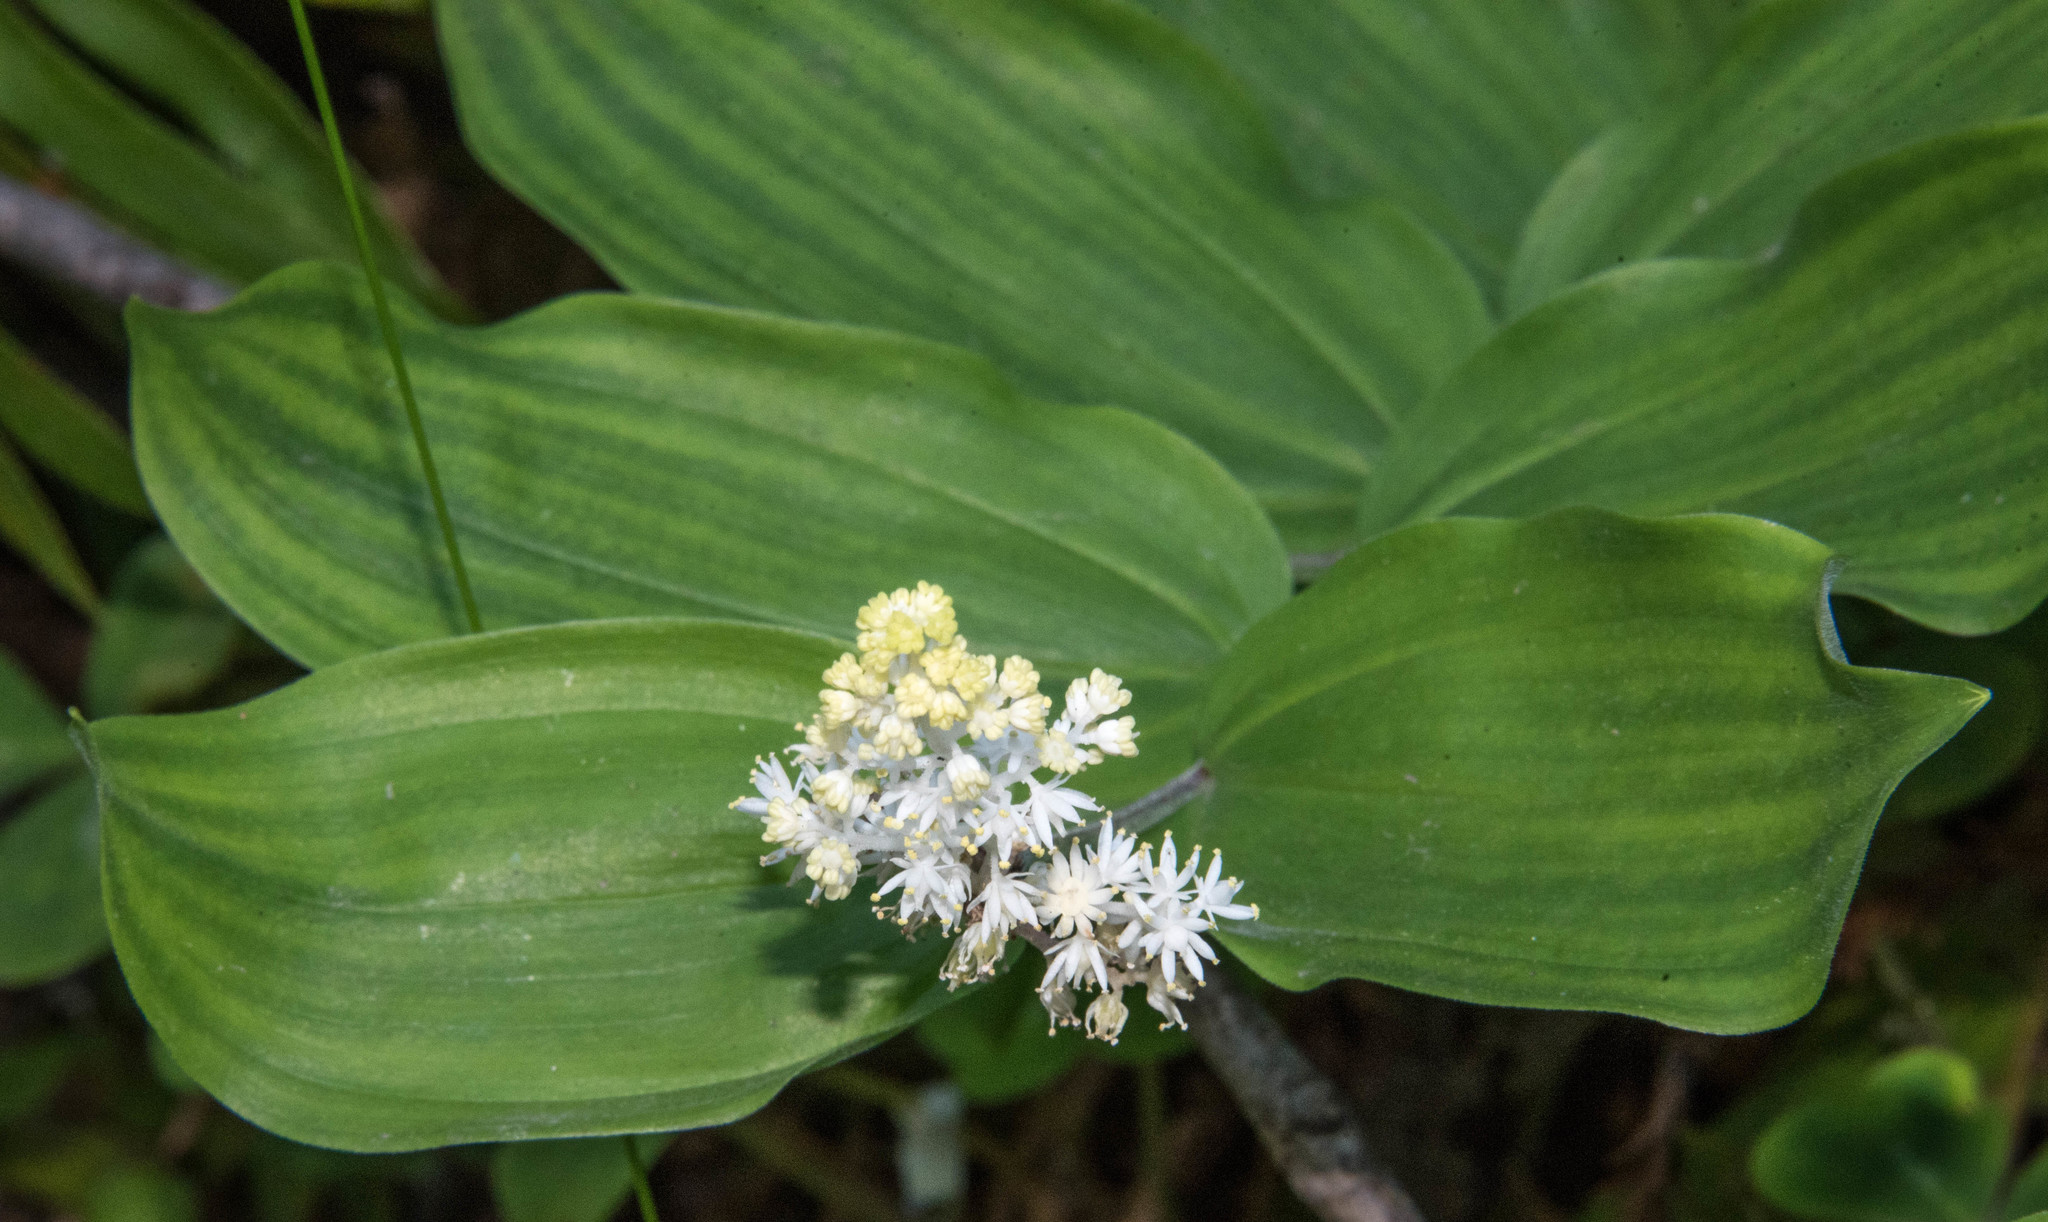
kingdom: Plantae
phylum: Tracheophyta
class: Liliopsida
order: Asparagales
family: Asparagaceae
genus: Maianthemum
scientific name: Maianthemum racemosum
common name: False spikenard
